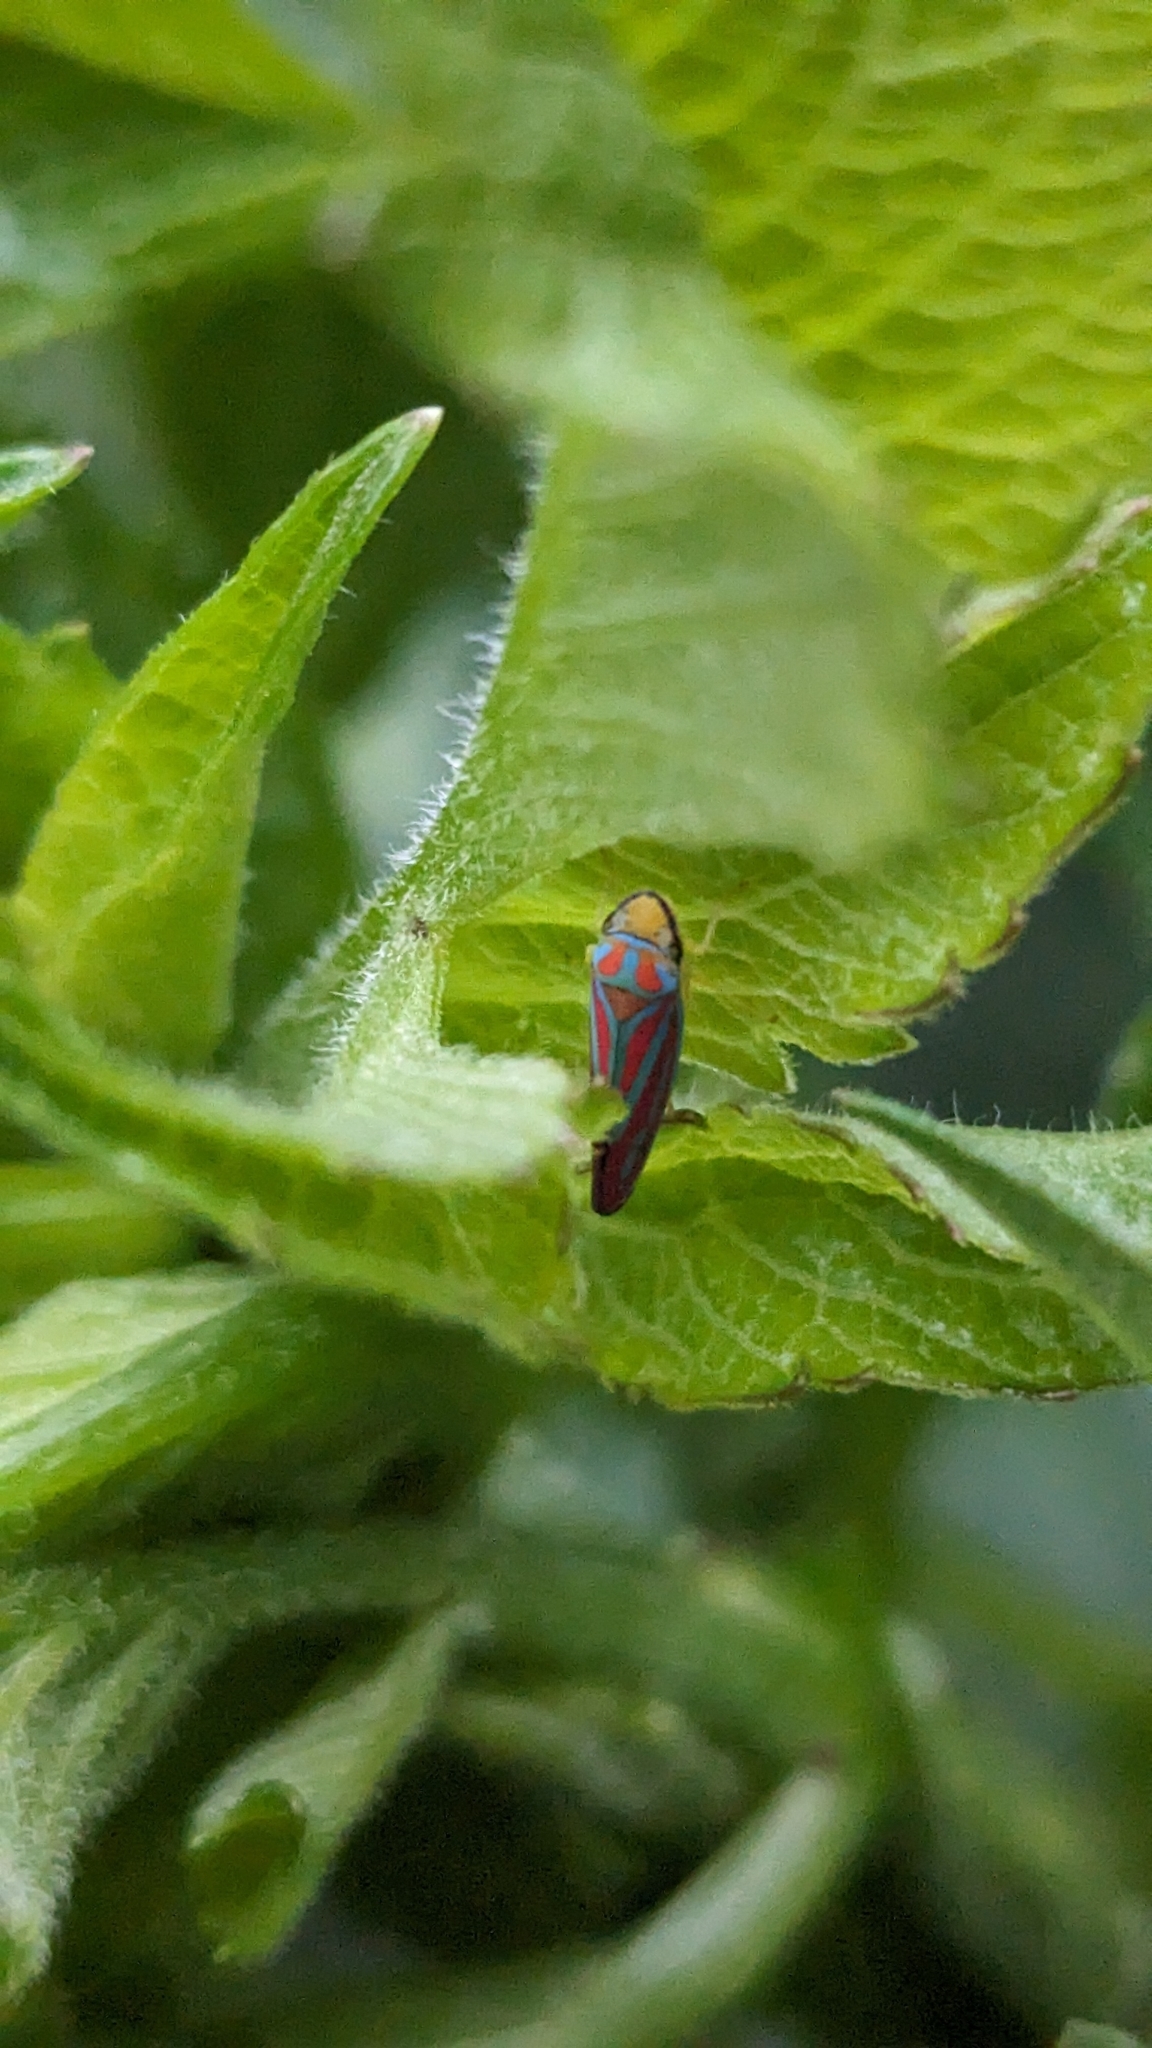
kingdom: Animalia
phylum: Arthropoda
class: Insecta
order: Hemiptera
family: Cicadellidae
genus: Graphocephala
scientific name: Graphocephala coccinea
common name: Candy-striped leafhopper
